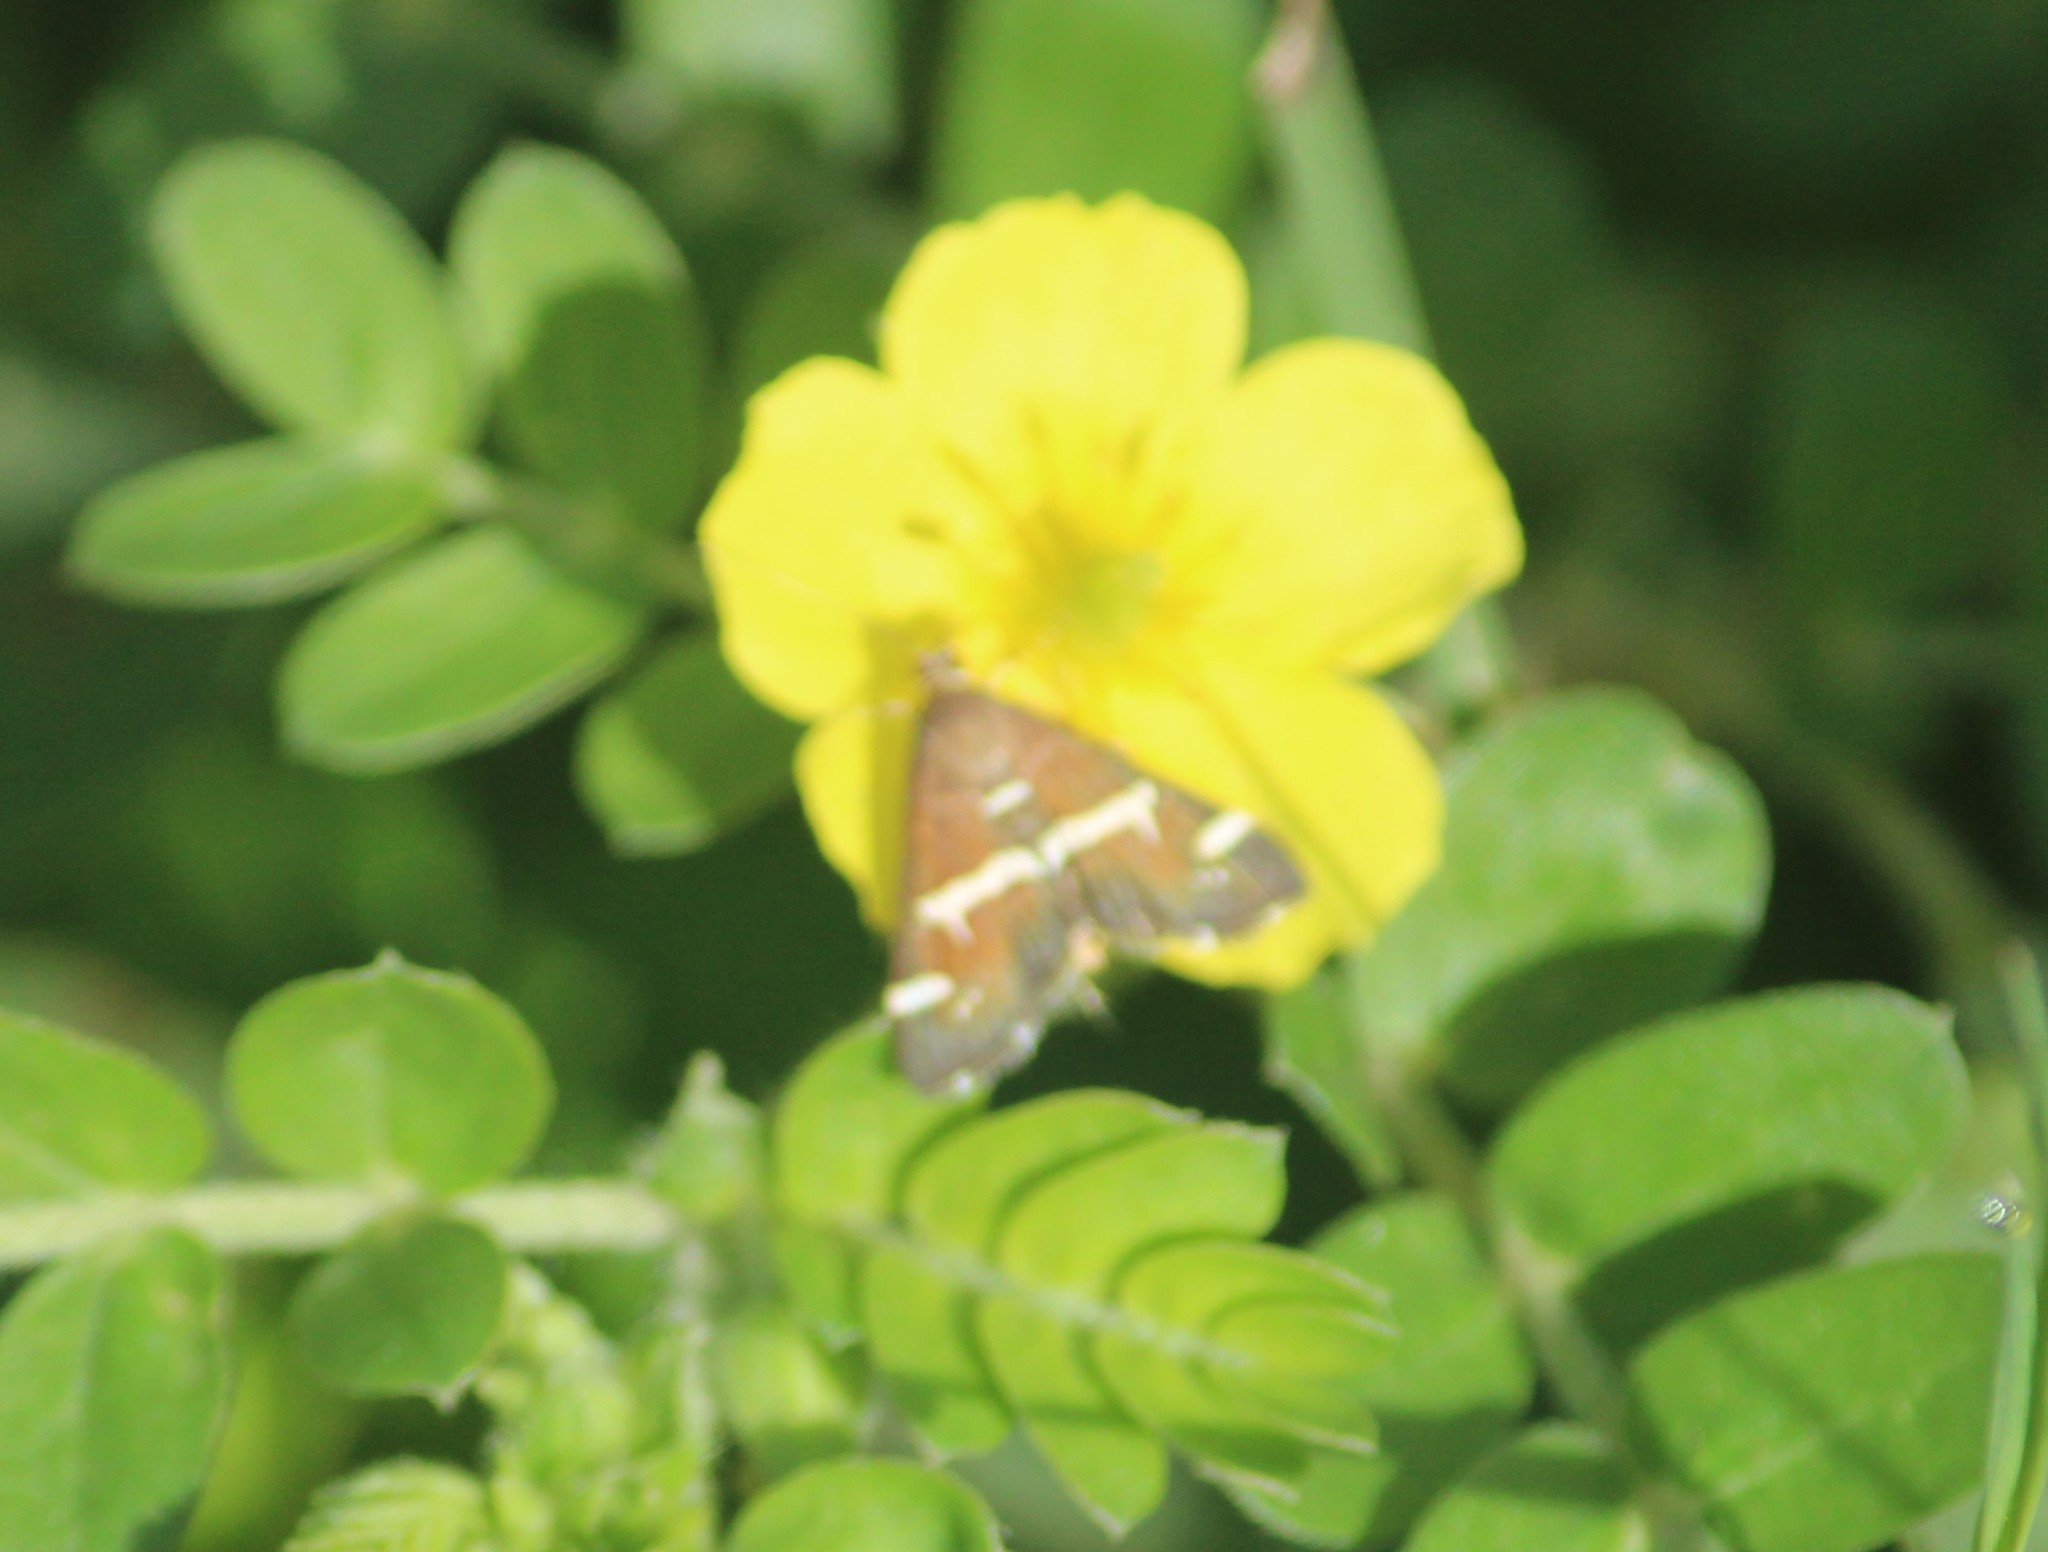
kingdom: Animalia
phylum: Arthropoda
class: Insecta
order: Lepidoptera
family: Crambidae
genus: Spoladea
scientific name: Spoladea recurvalis
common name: Beet webworm moth
